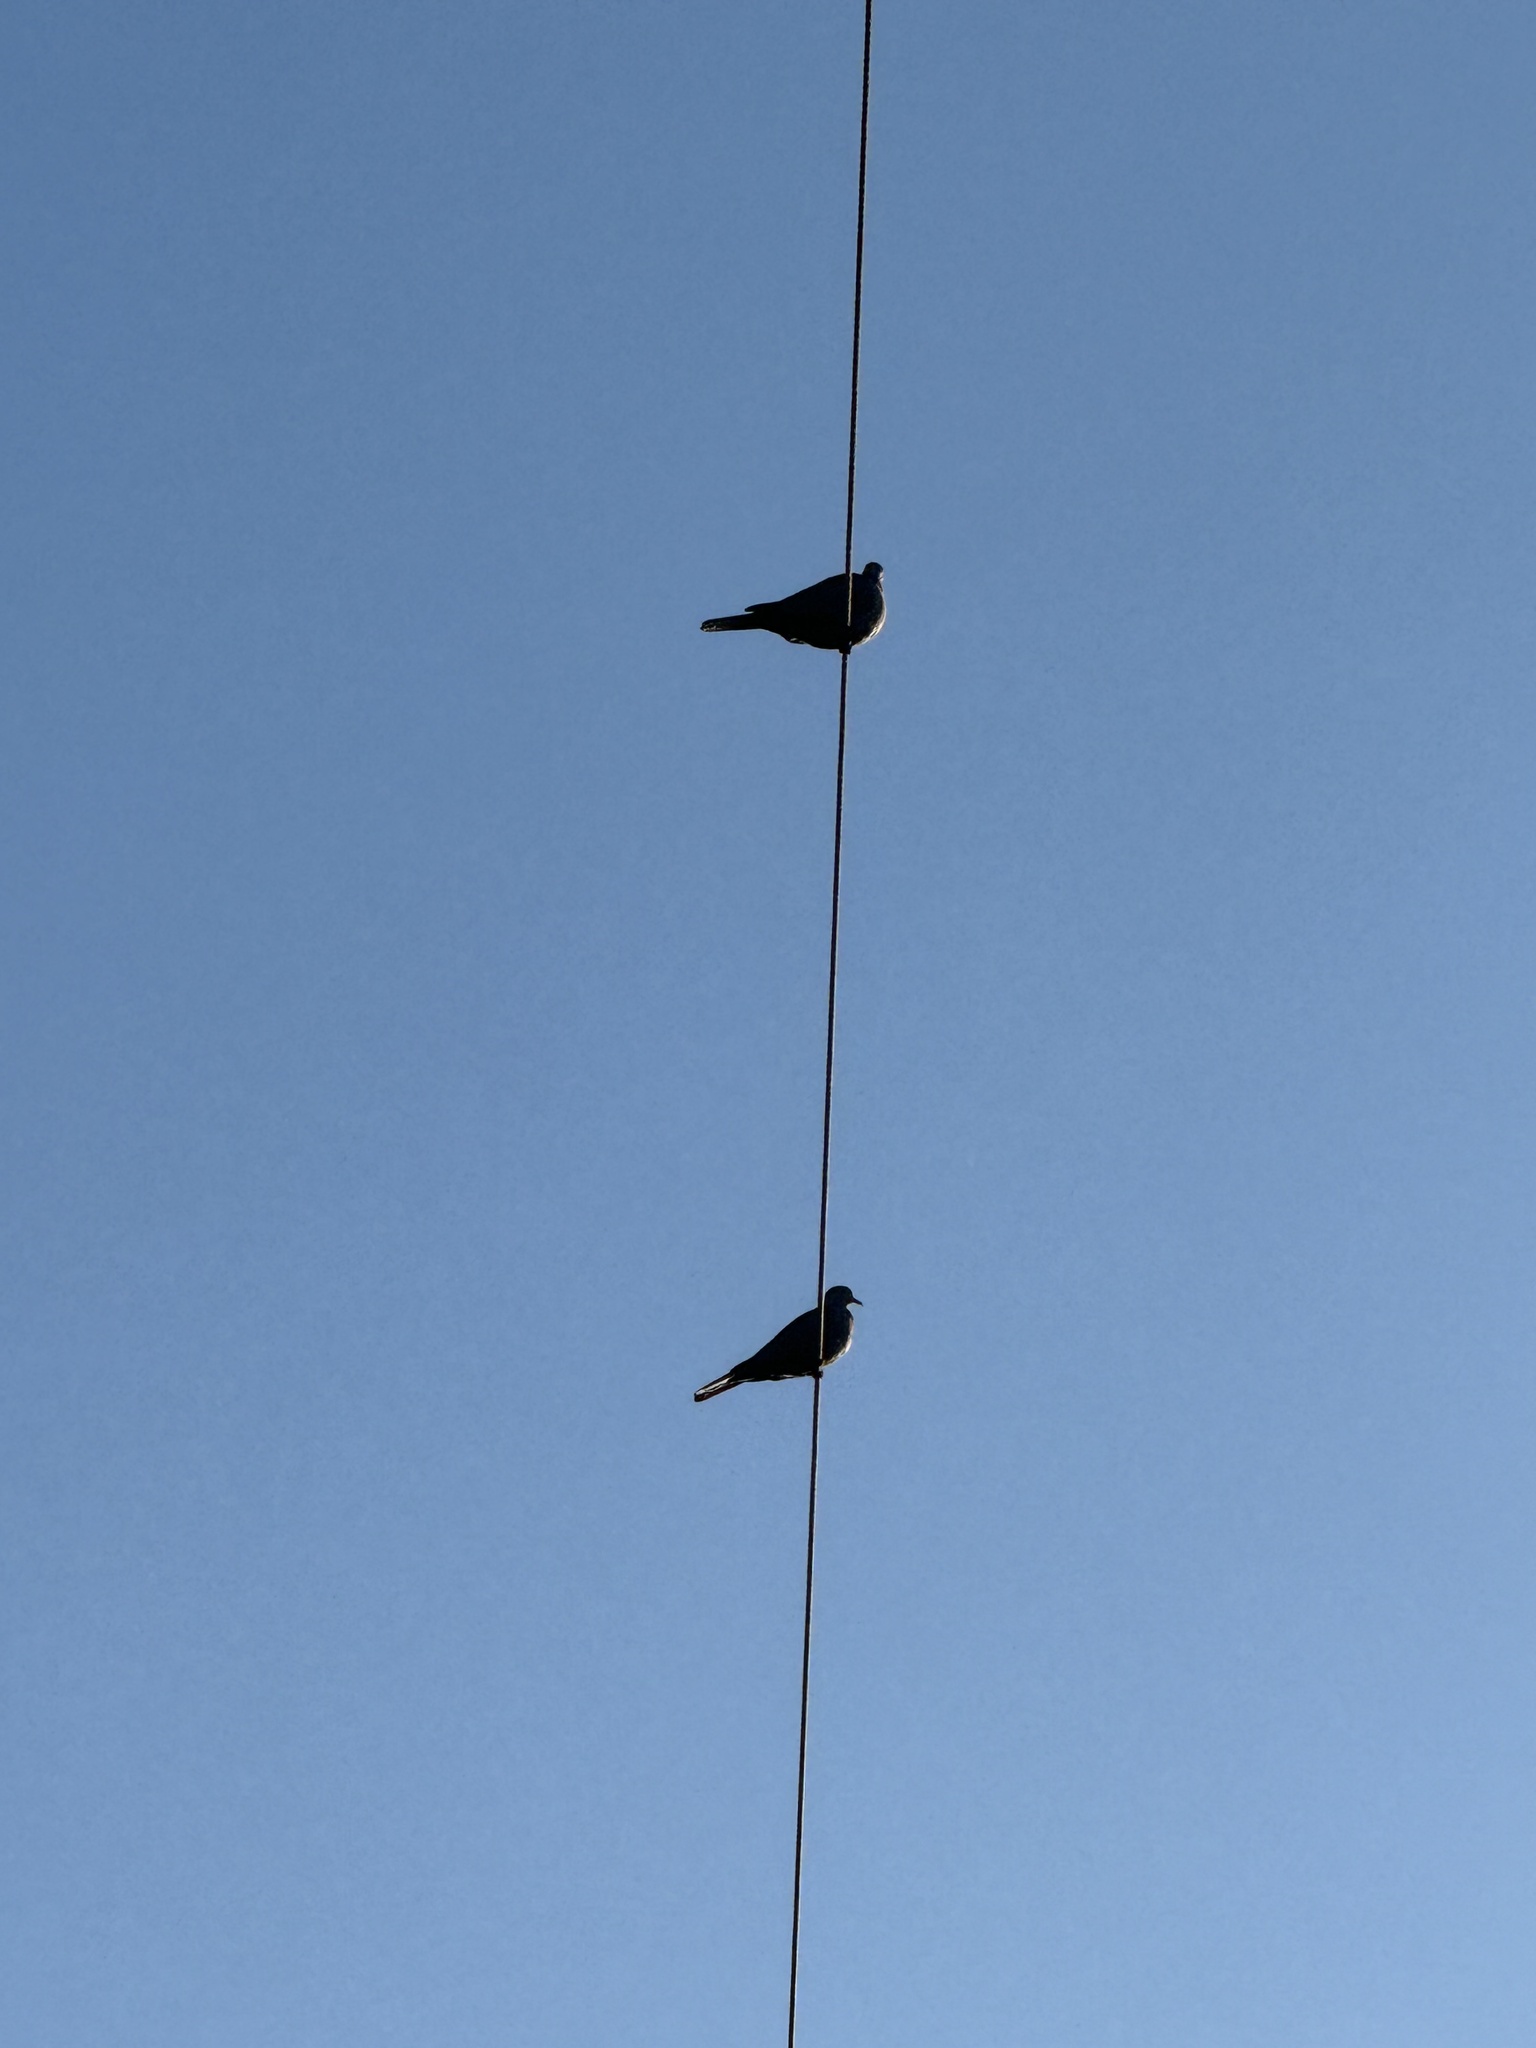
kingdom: Animalia
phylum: Chordata
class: Aves
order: Columbiformes
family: Columbidae
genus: Streptopelia
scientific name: Streptopelia decaocto
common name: Eurasian collared dove
